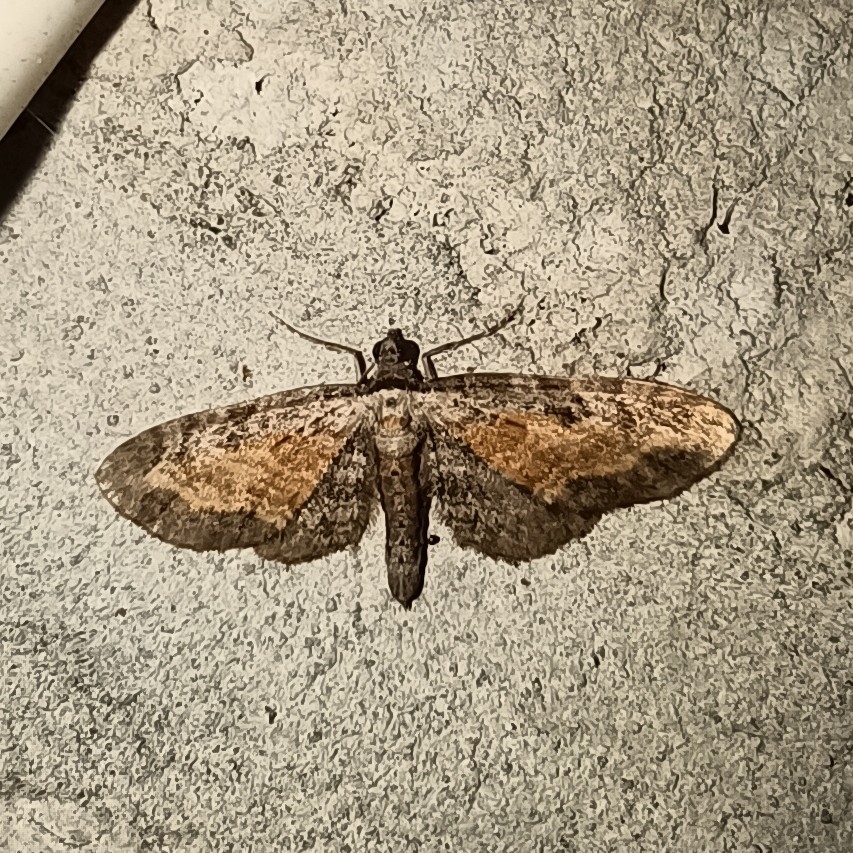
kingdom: Animalia
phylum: Arthropoda
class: Insecta
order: Lepidoptera
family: Geometridae
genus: Eupithecia
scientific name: Eupithecia icterata
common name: Tawny speckled pug
